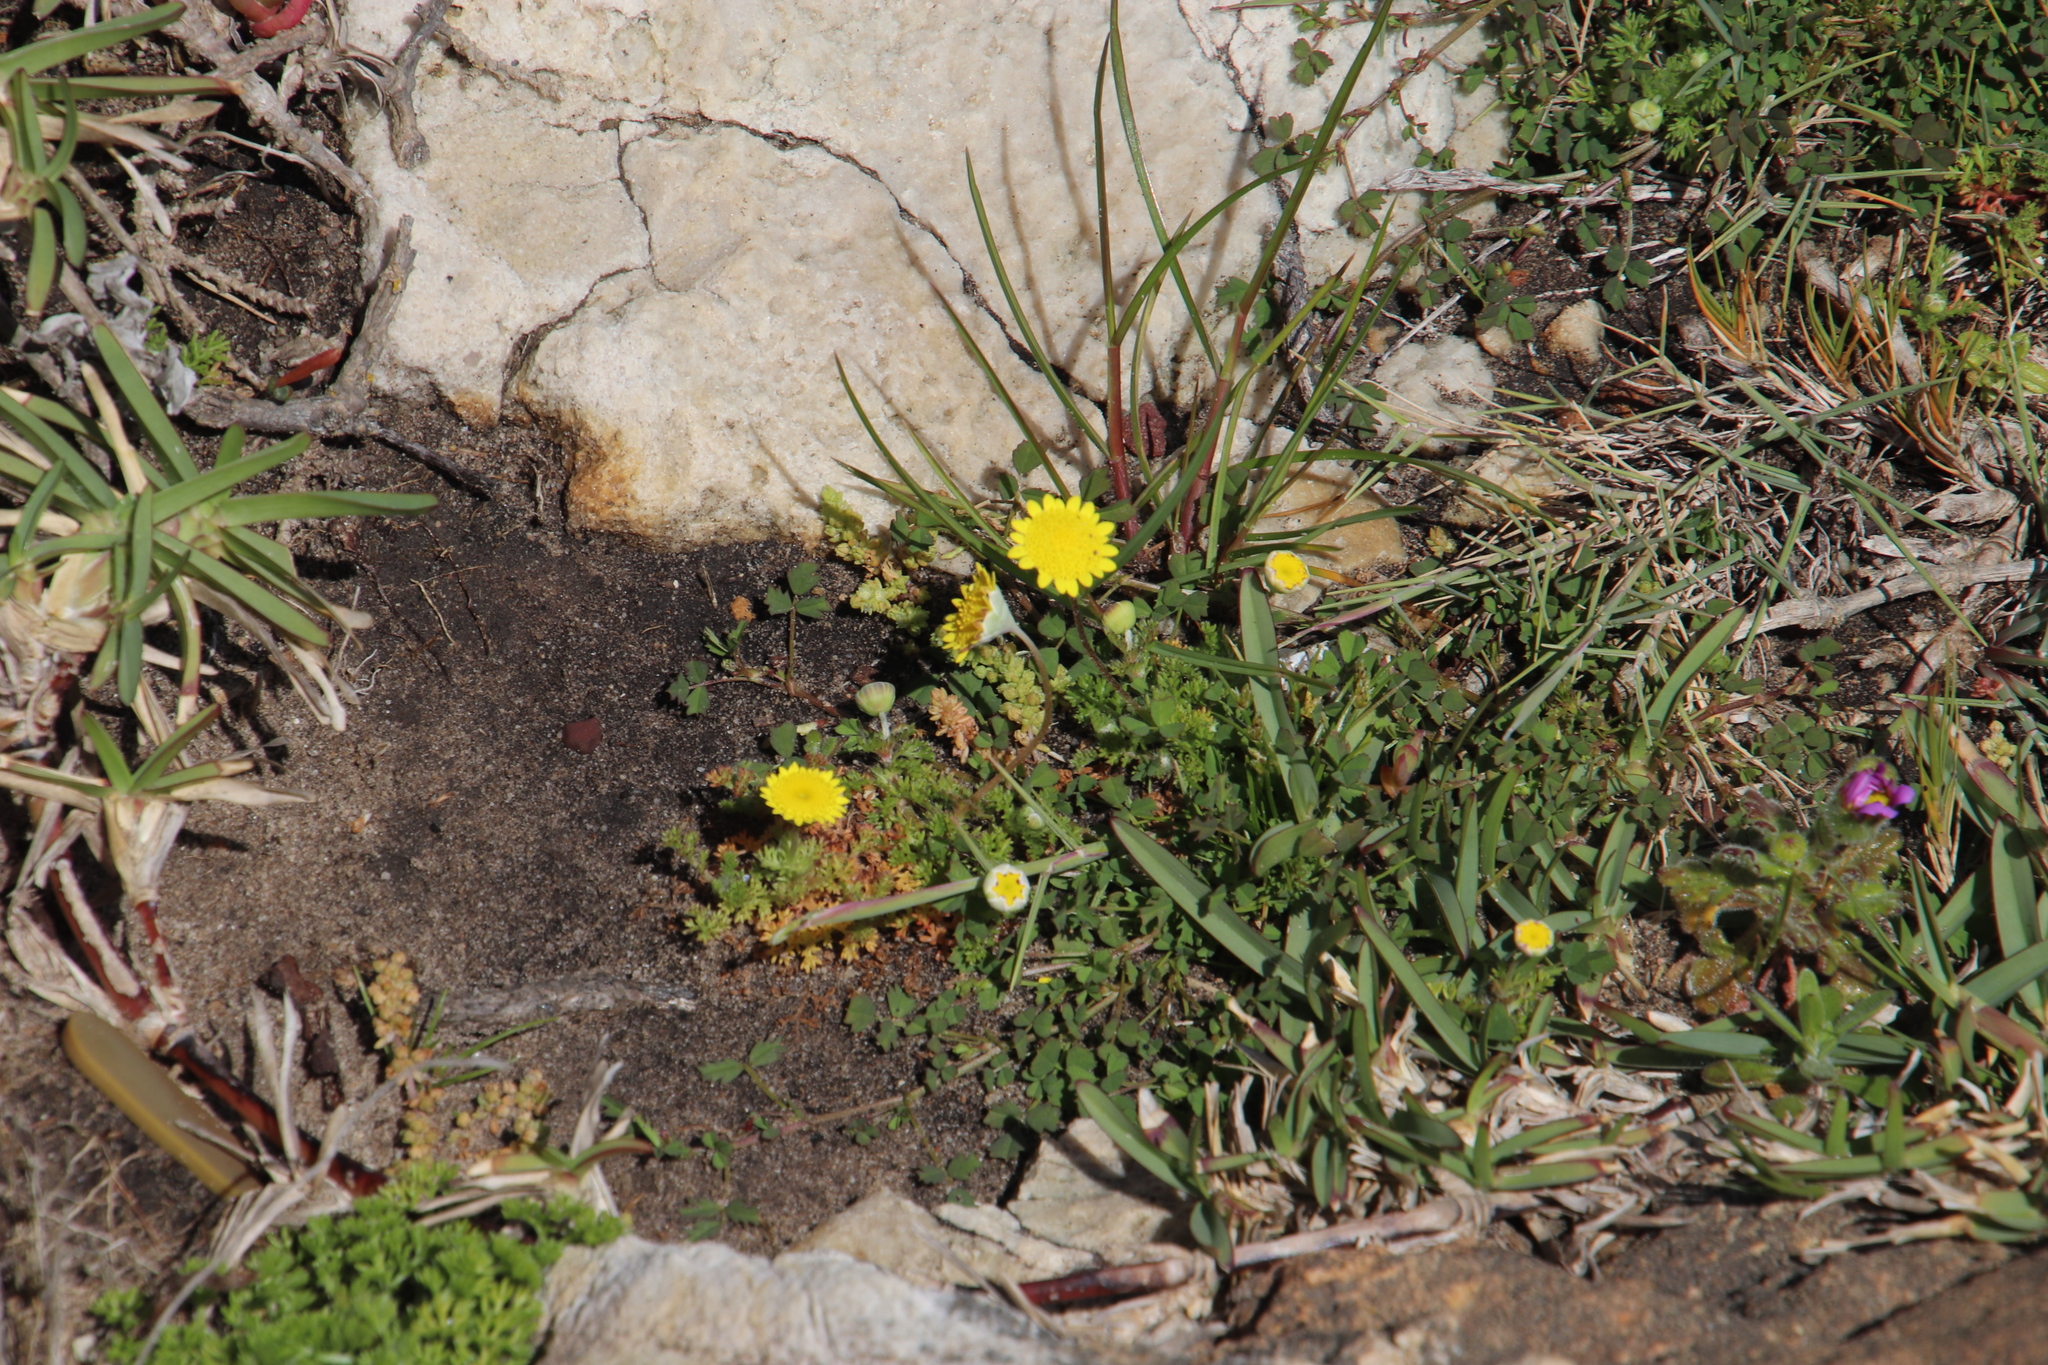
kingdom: Plantae
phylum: Tracheophyta
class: Magnoliopsida
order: Asterales
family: Asteraceae
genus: Cotula
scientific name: Cotula pruinosa
